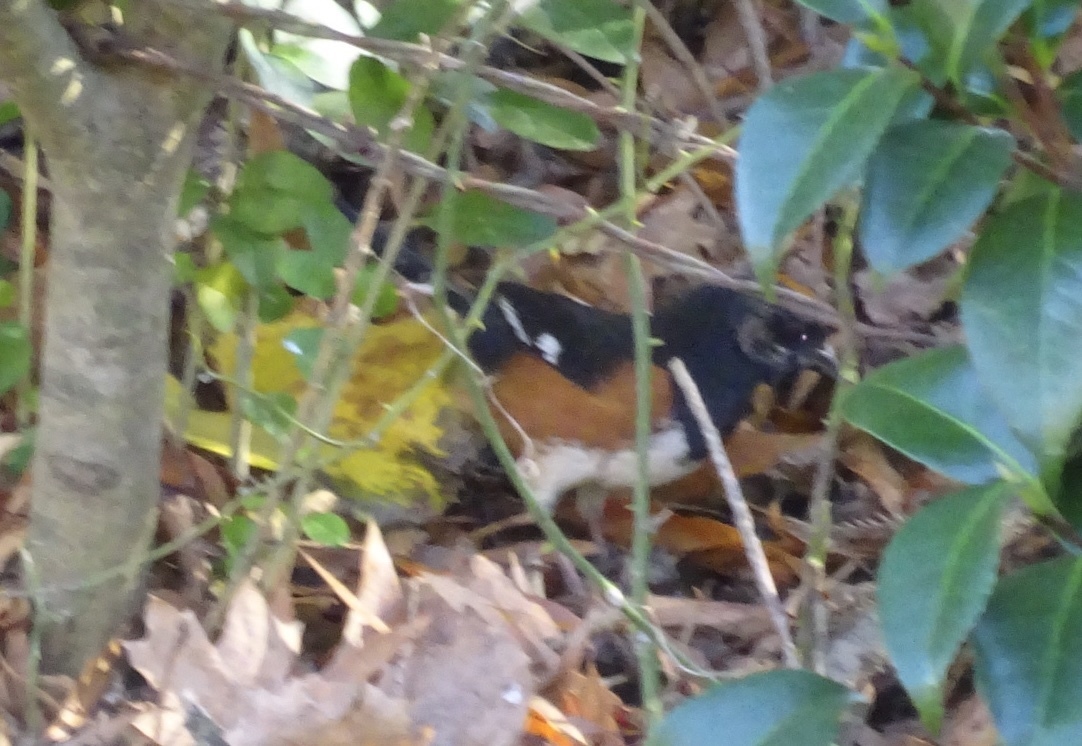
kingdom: Animalia
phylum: Chordata
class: Aves
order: Passeriformes
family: Passerellidae
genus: Pipilo
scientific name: Pipilo erythrophthalmus
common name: Eastern towhee
